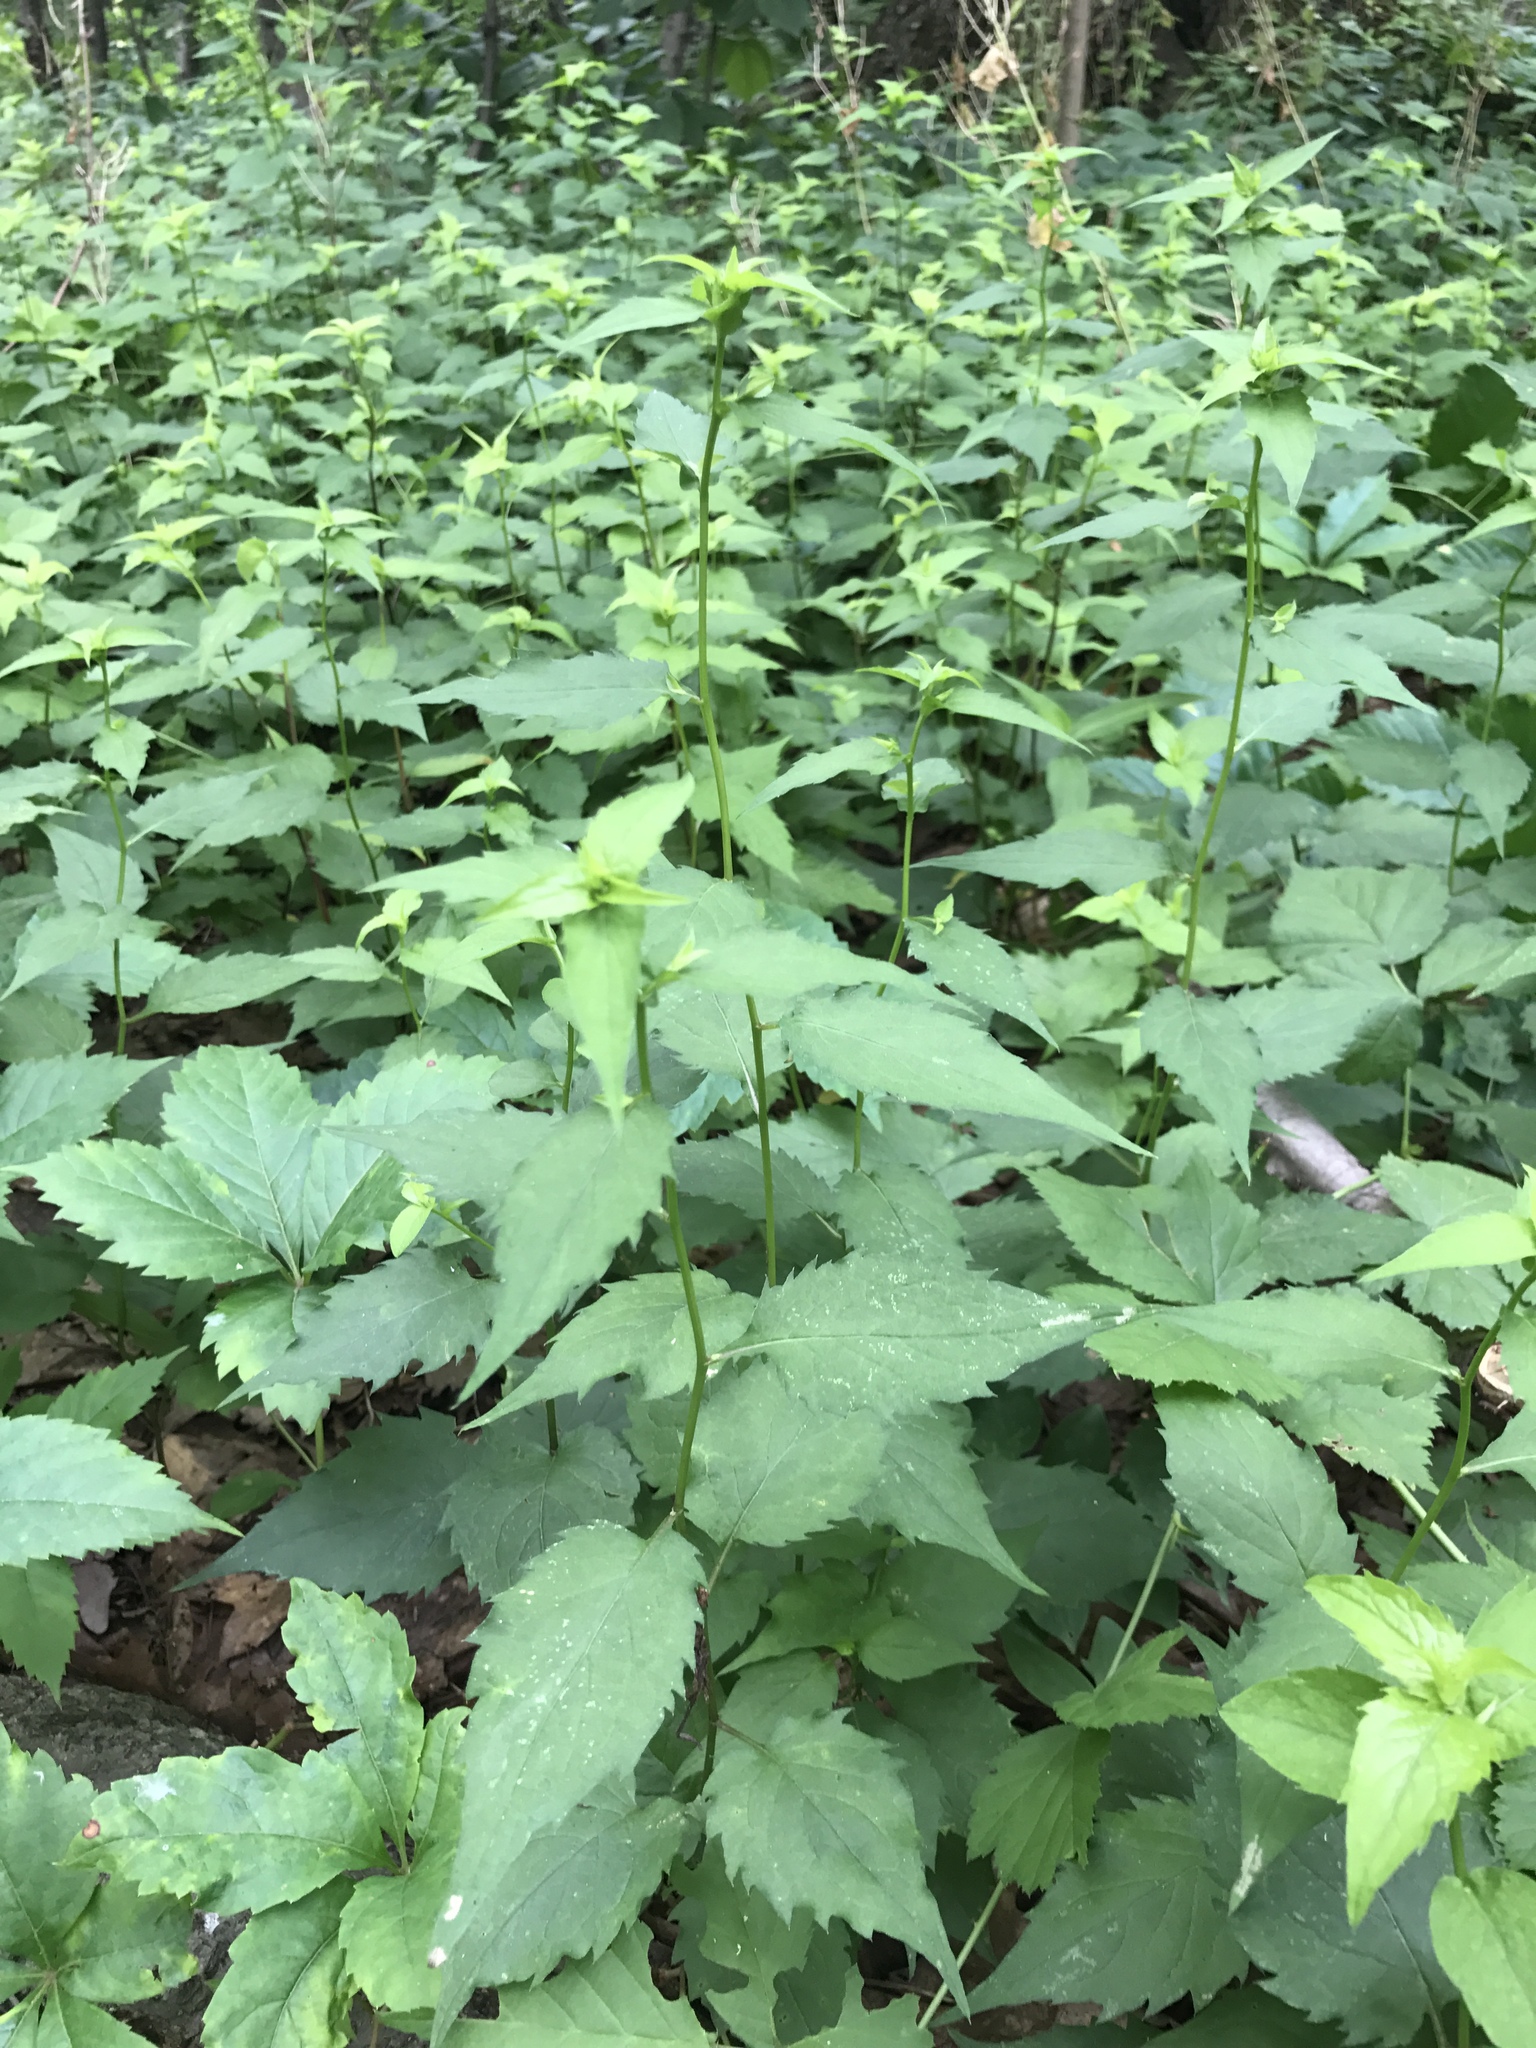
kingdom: Plantae
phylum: Tracheophyta
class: Magnoliopsida
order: Asterales
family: Asteraceae
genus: Eurybia
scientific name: Eurybia divaricata
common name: White wood aster
